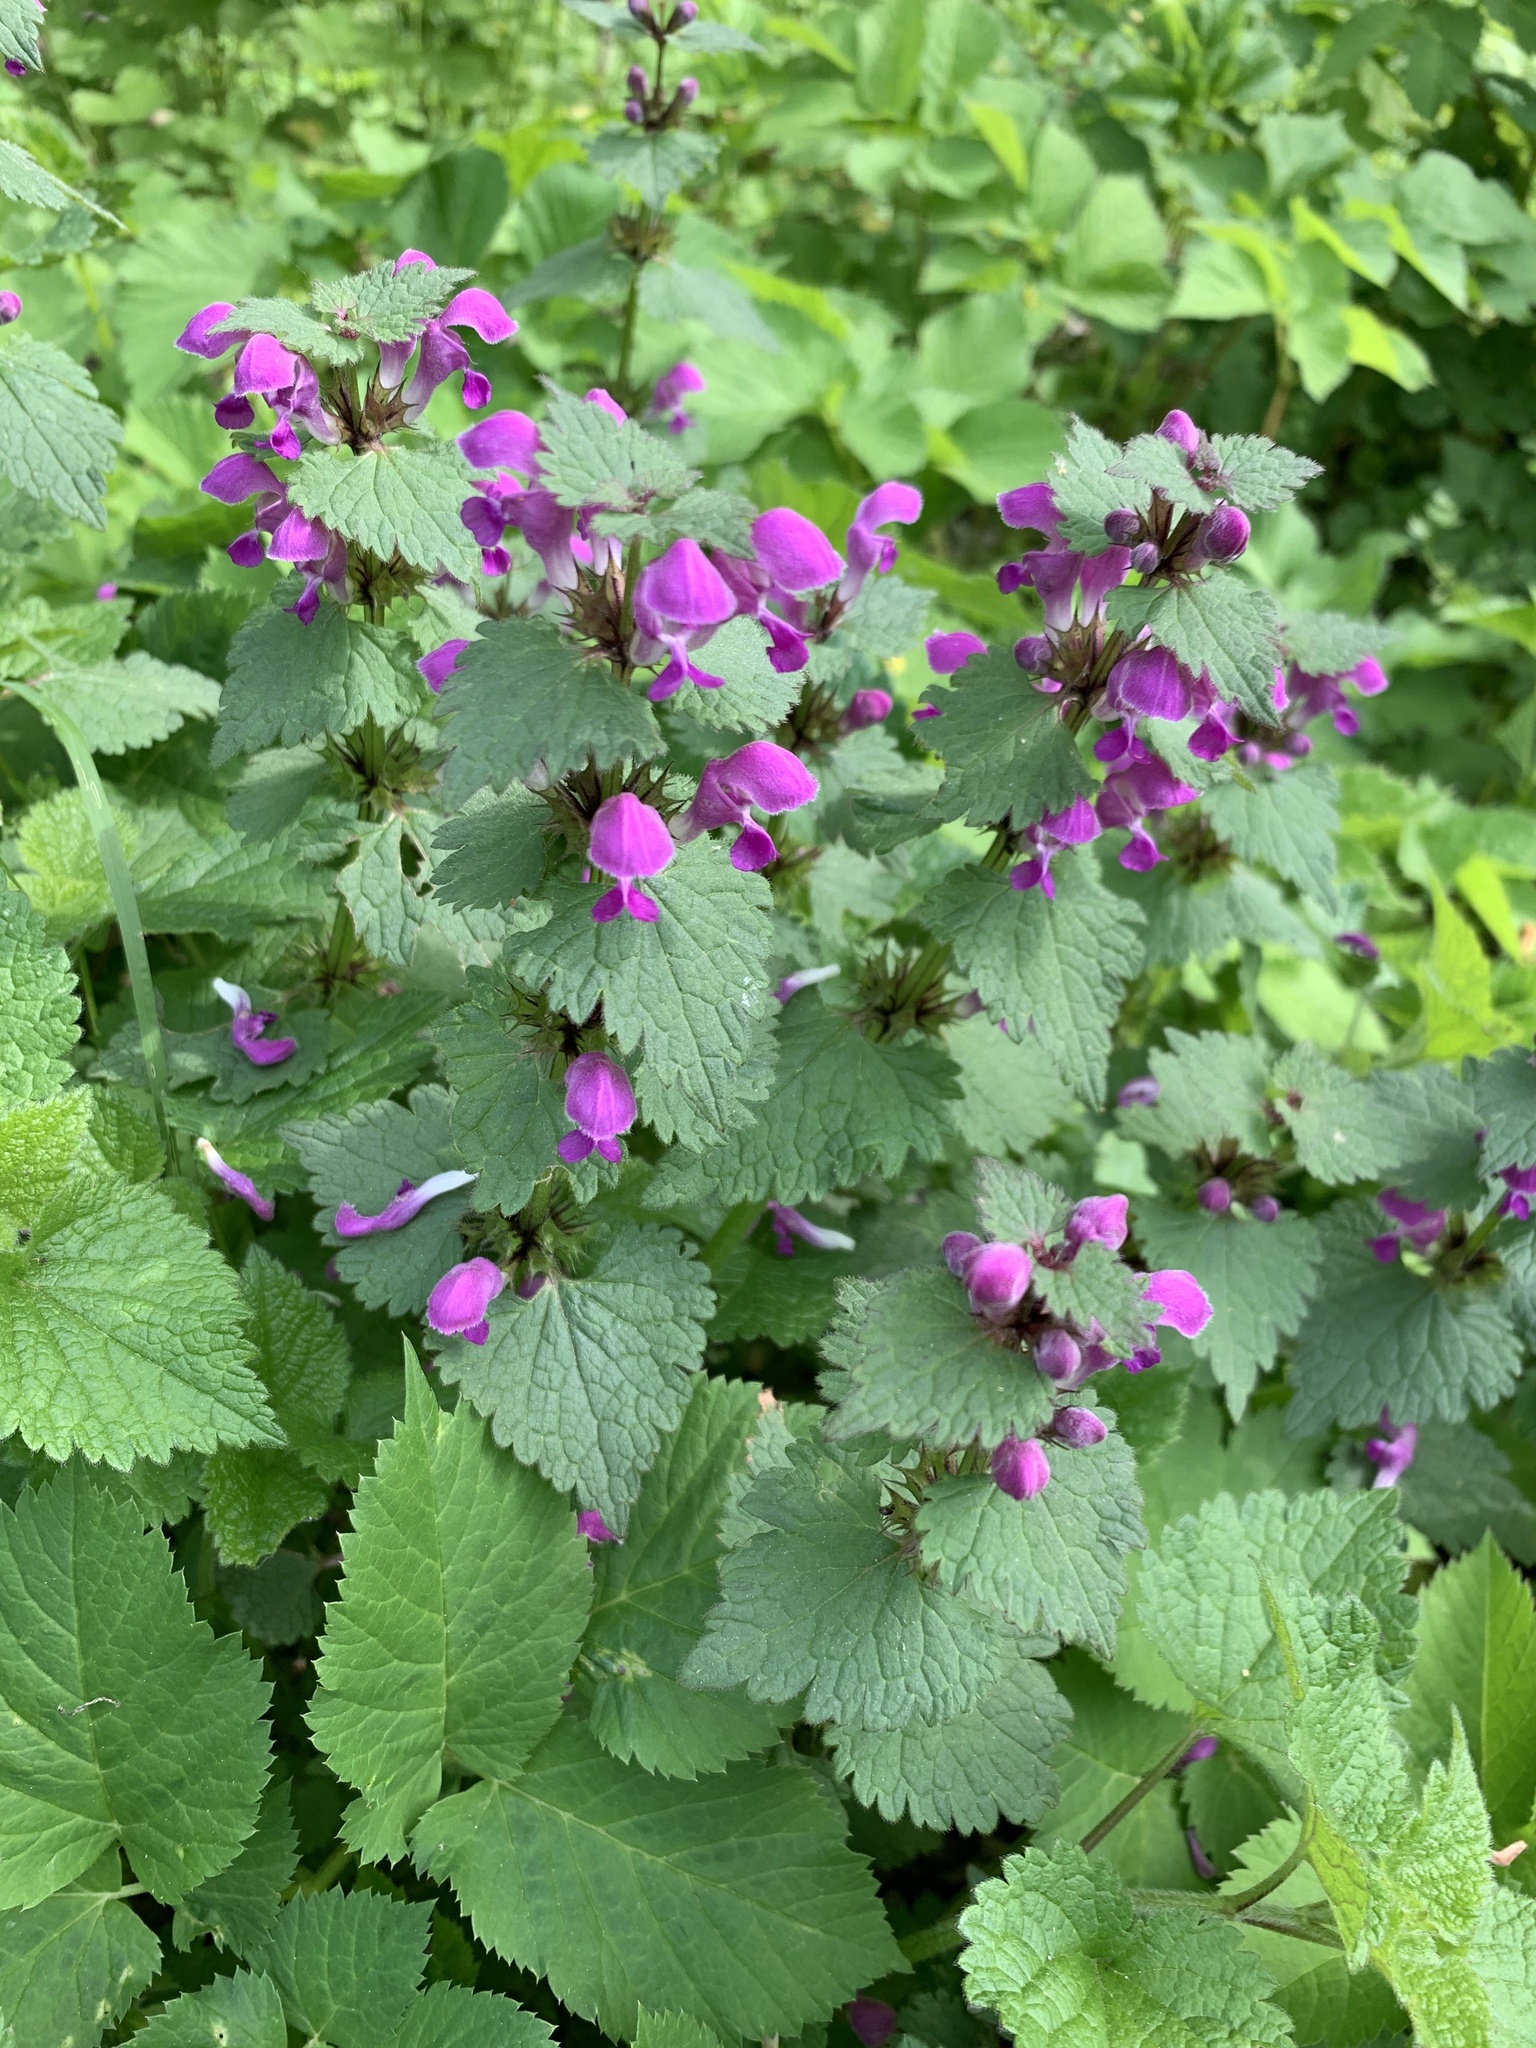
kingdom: Plantae
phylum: Tracheophyta
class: Magnoliopsida
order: Lamiales
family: Lamiaceae
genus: Lamium
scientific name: Lamium maculatum
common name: Spotted dead-nettle
